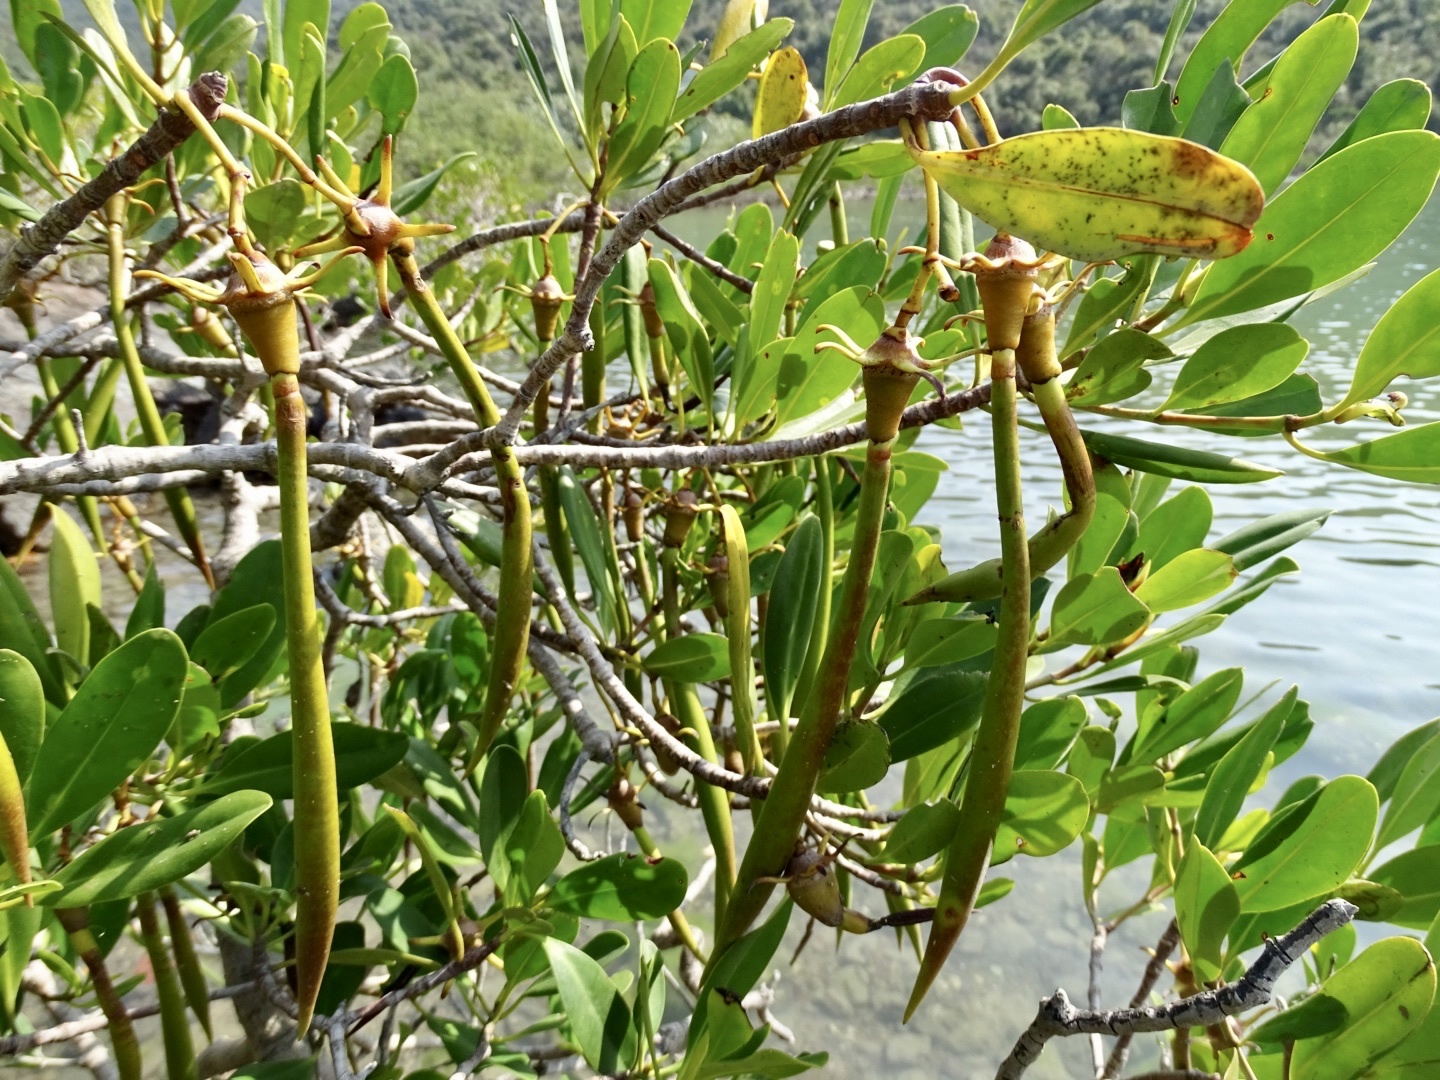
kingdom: Plantae
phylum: Tracheophyta
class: Magnoliopsida
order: Malpighiales
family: Rhizophoraceae
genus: Kandelia
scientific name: Kandelia obovata
